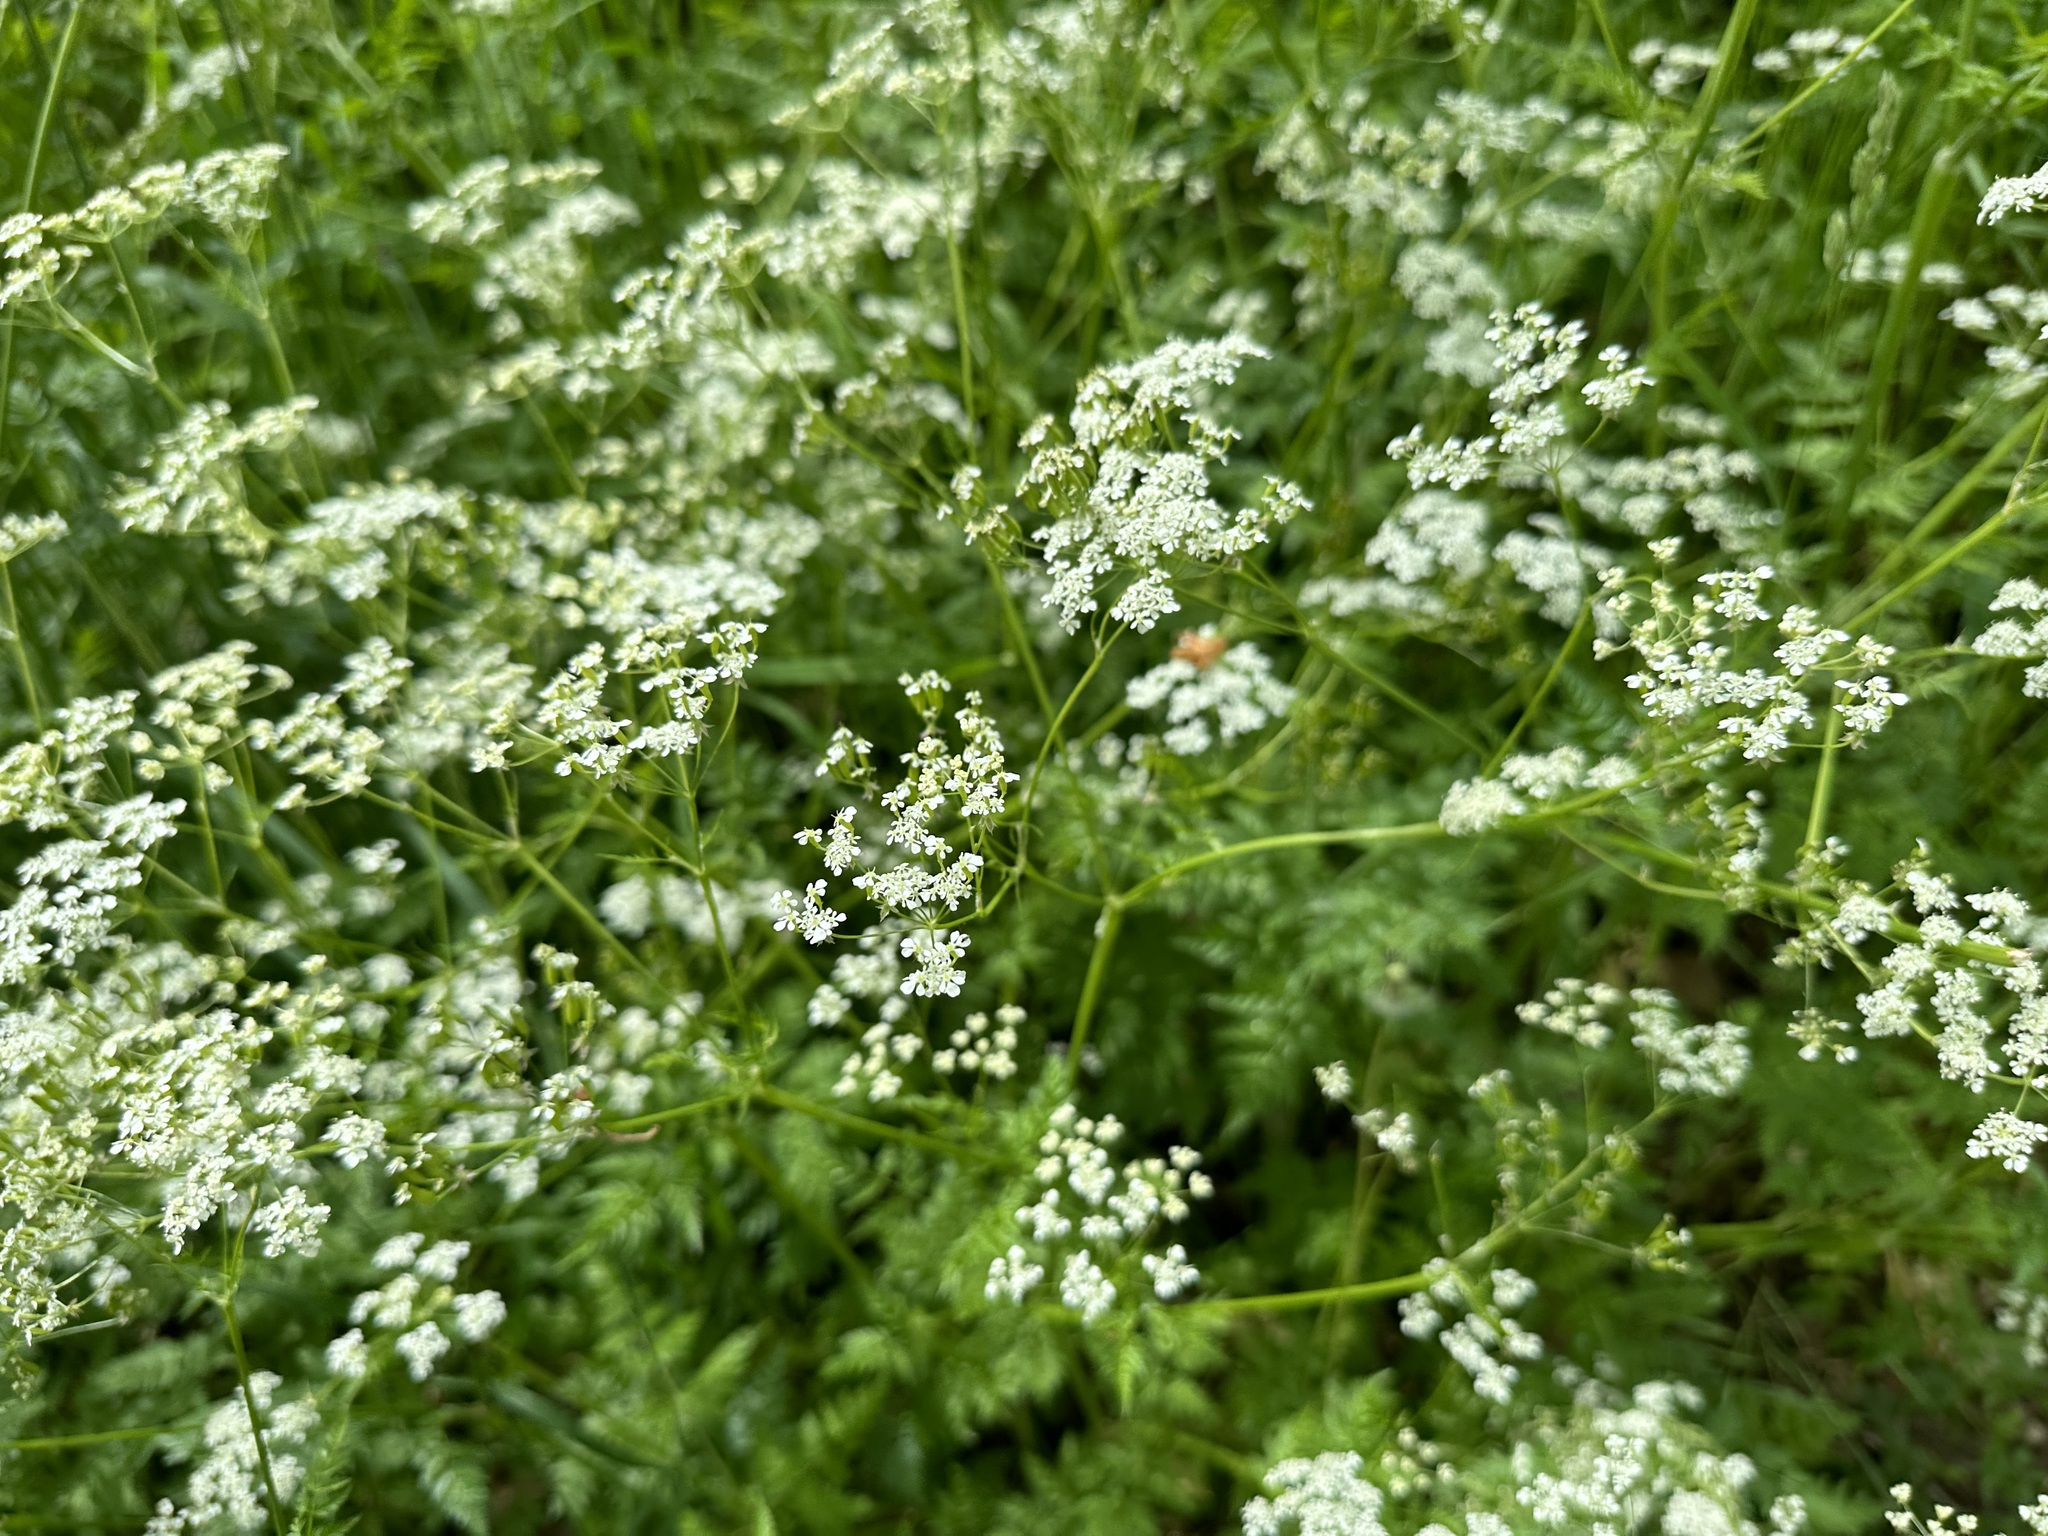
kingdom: Plantae
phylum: Tracheophyta
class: Magnoliopsida
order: Apiales
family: Apiaceae
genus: Anthriscus
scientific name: Anthriscus sylvestris
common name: Cow parsley
